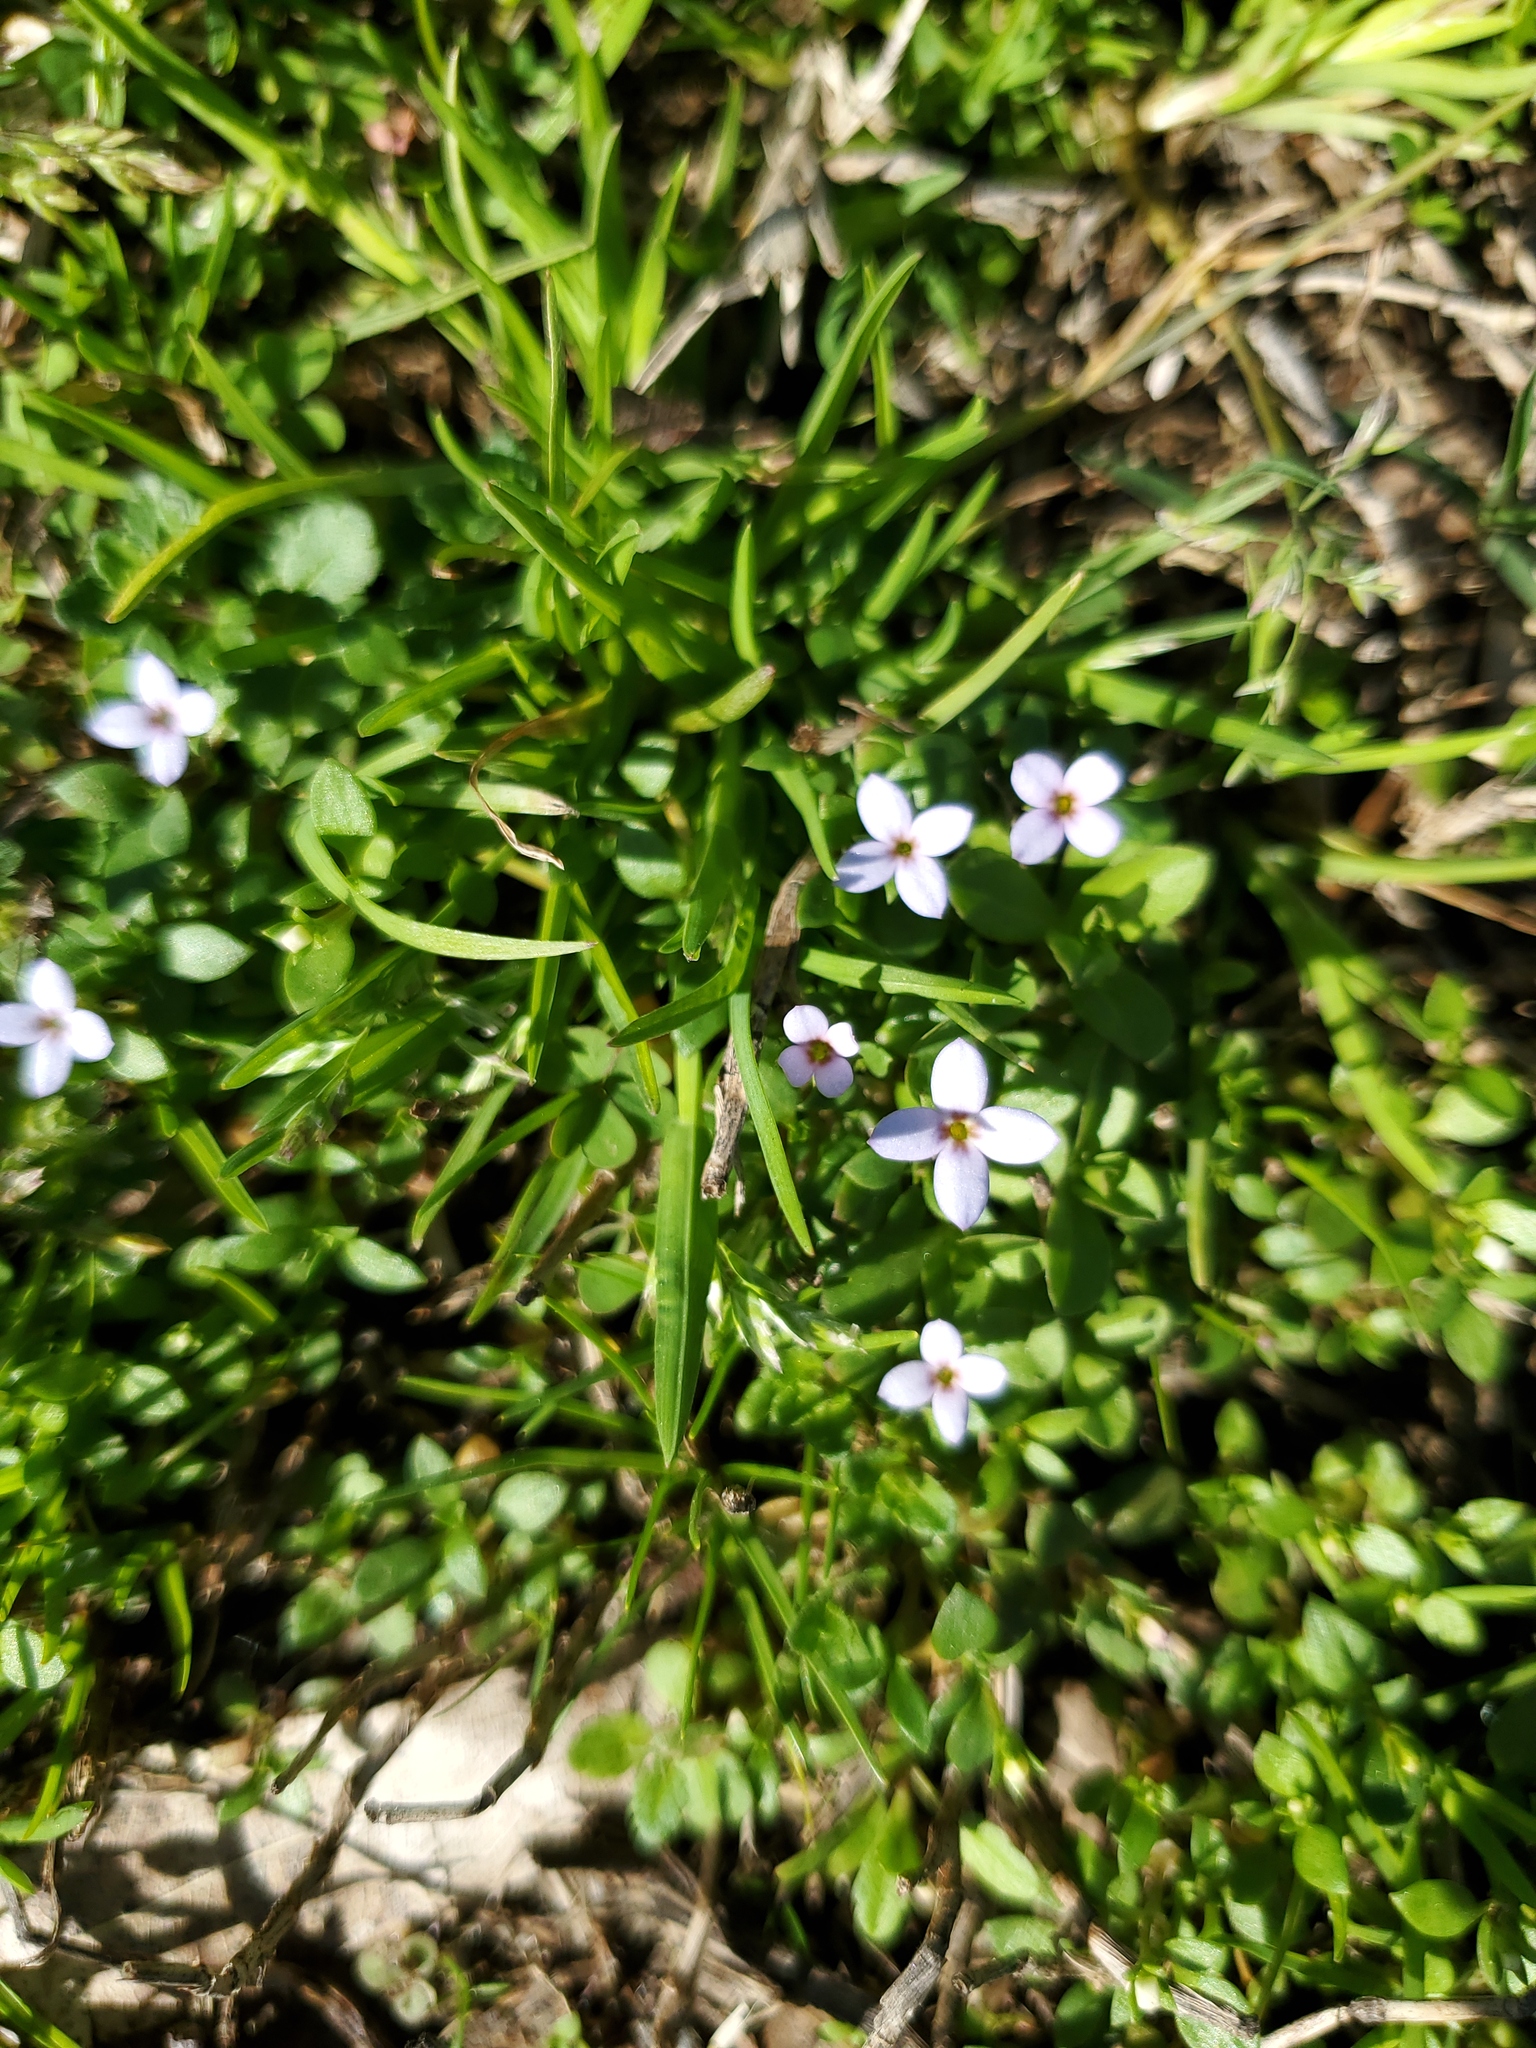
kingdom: Plantae
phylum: Tracheophyta
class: Magnoliopsida
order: Gentianales
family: Rubiaceae
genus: Houstonia
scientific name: Houstonia pusilla
